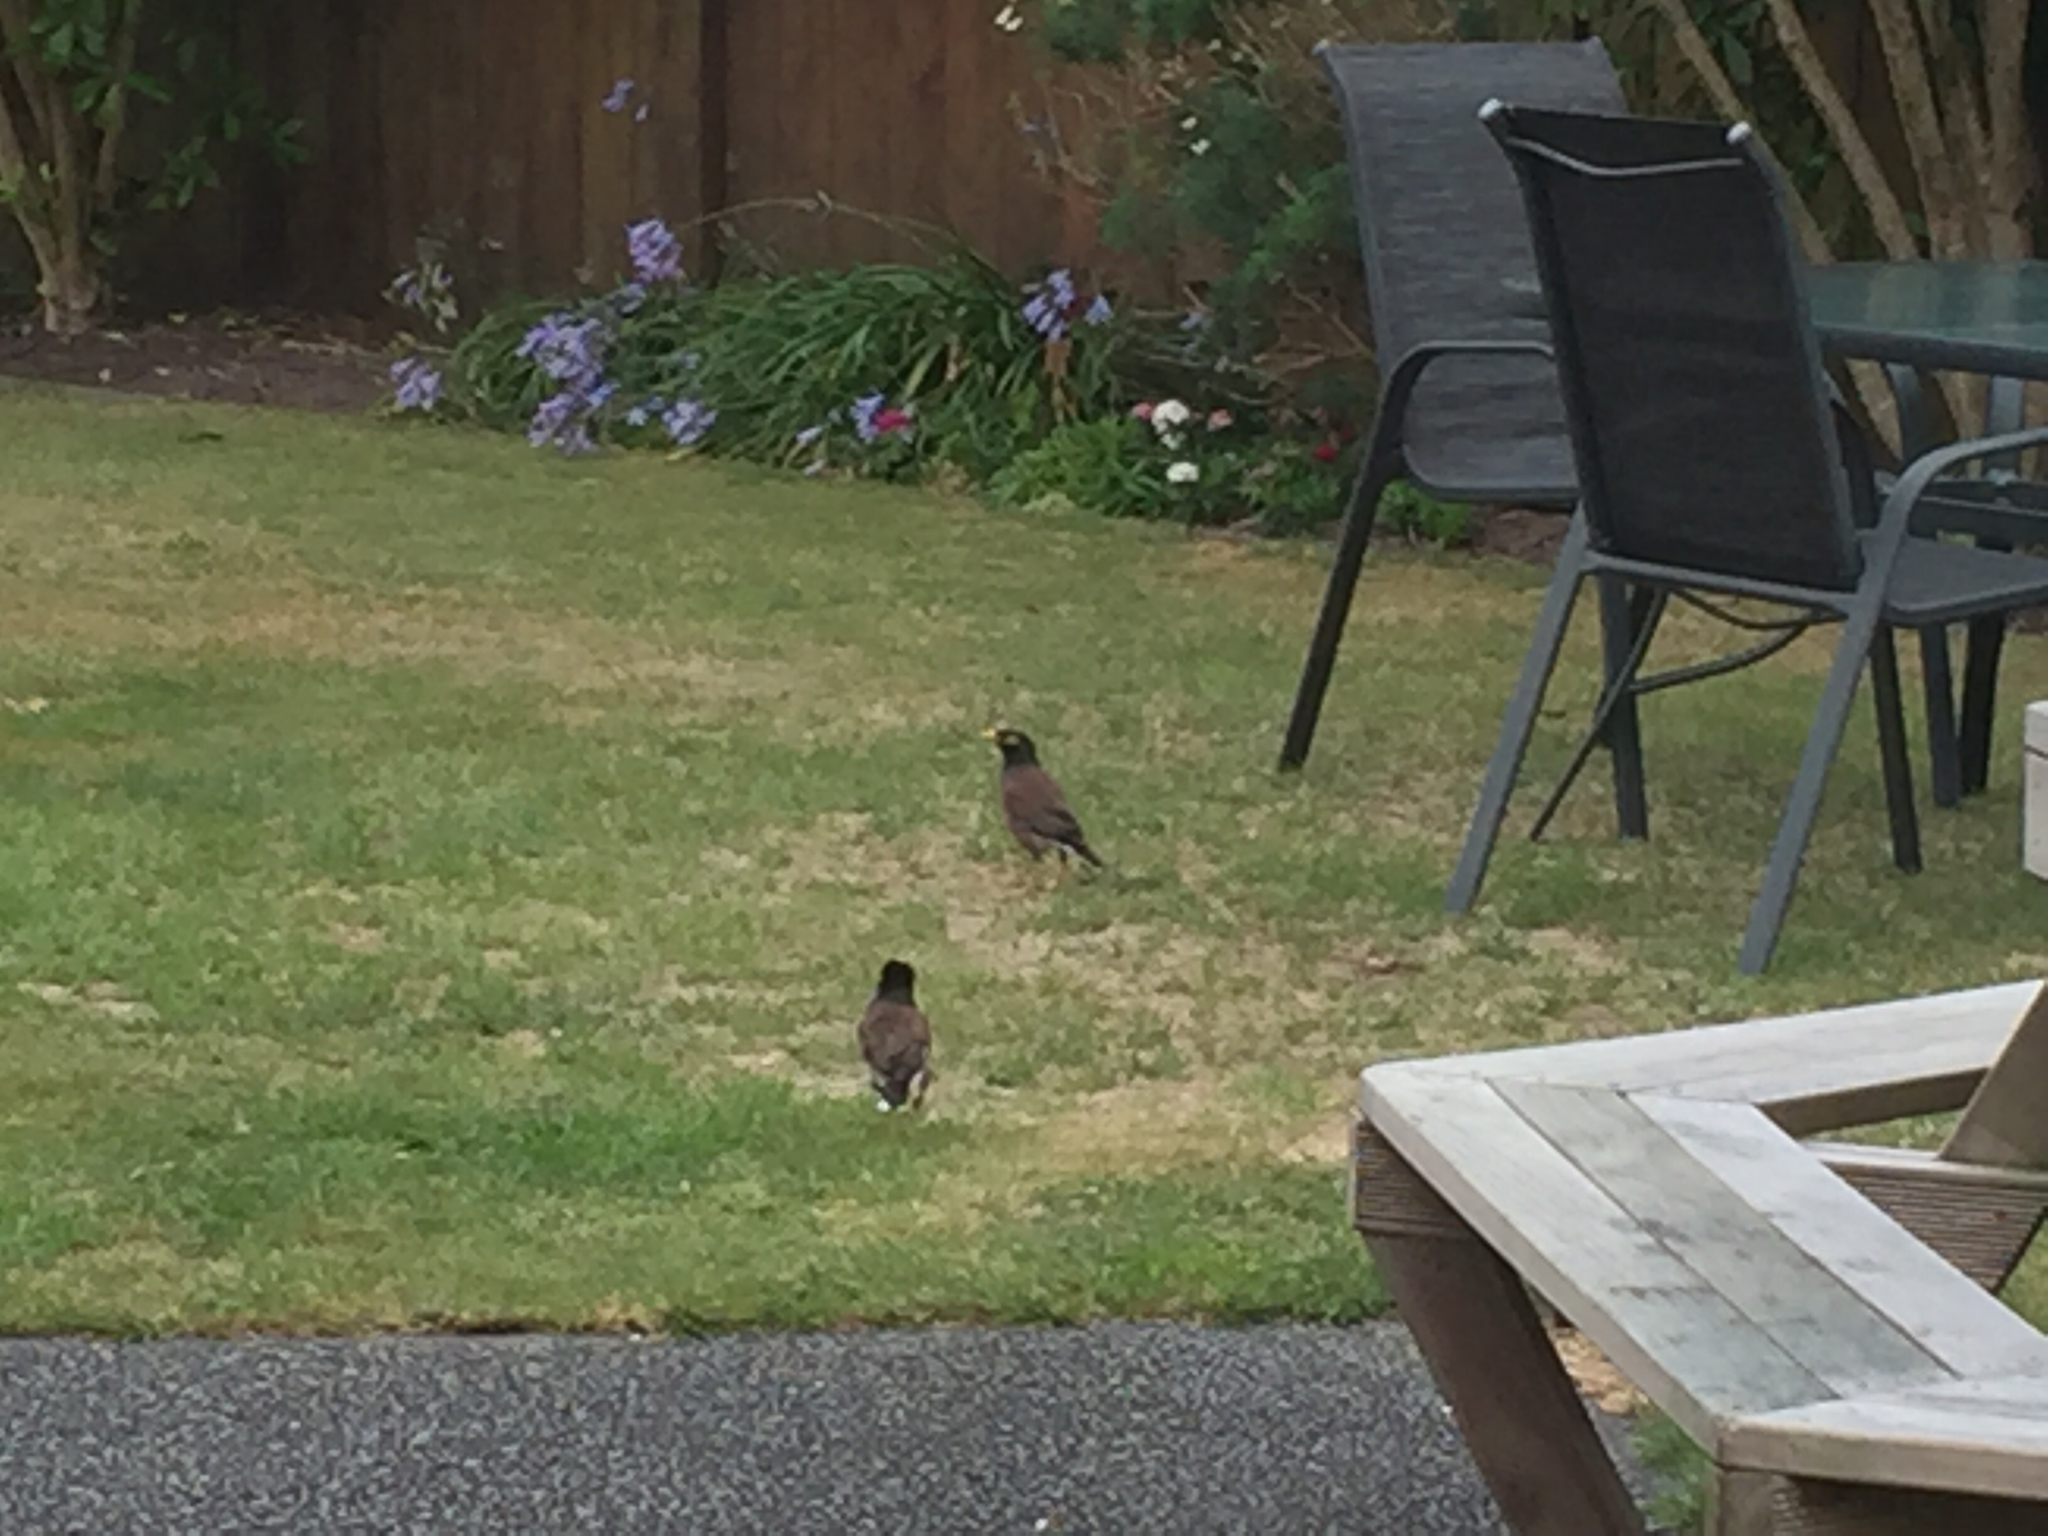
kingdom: Animalia
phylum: Chordata
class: Aves
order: Passeriformes
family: Sturnidae
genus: Acridotheres
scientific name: Acridotheres tristis
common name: Common myna
